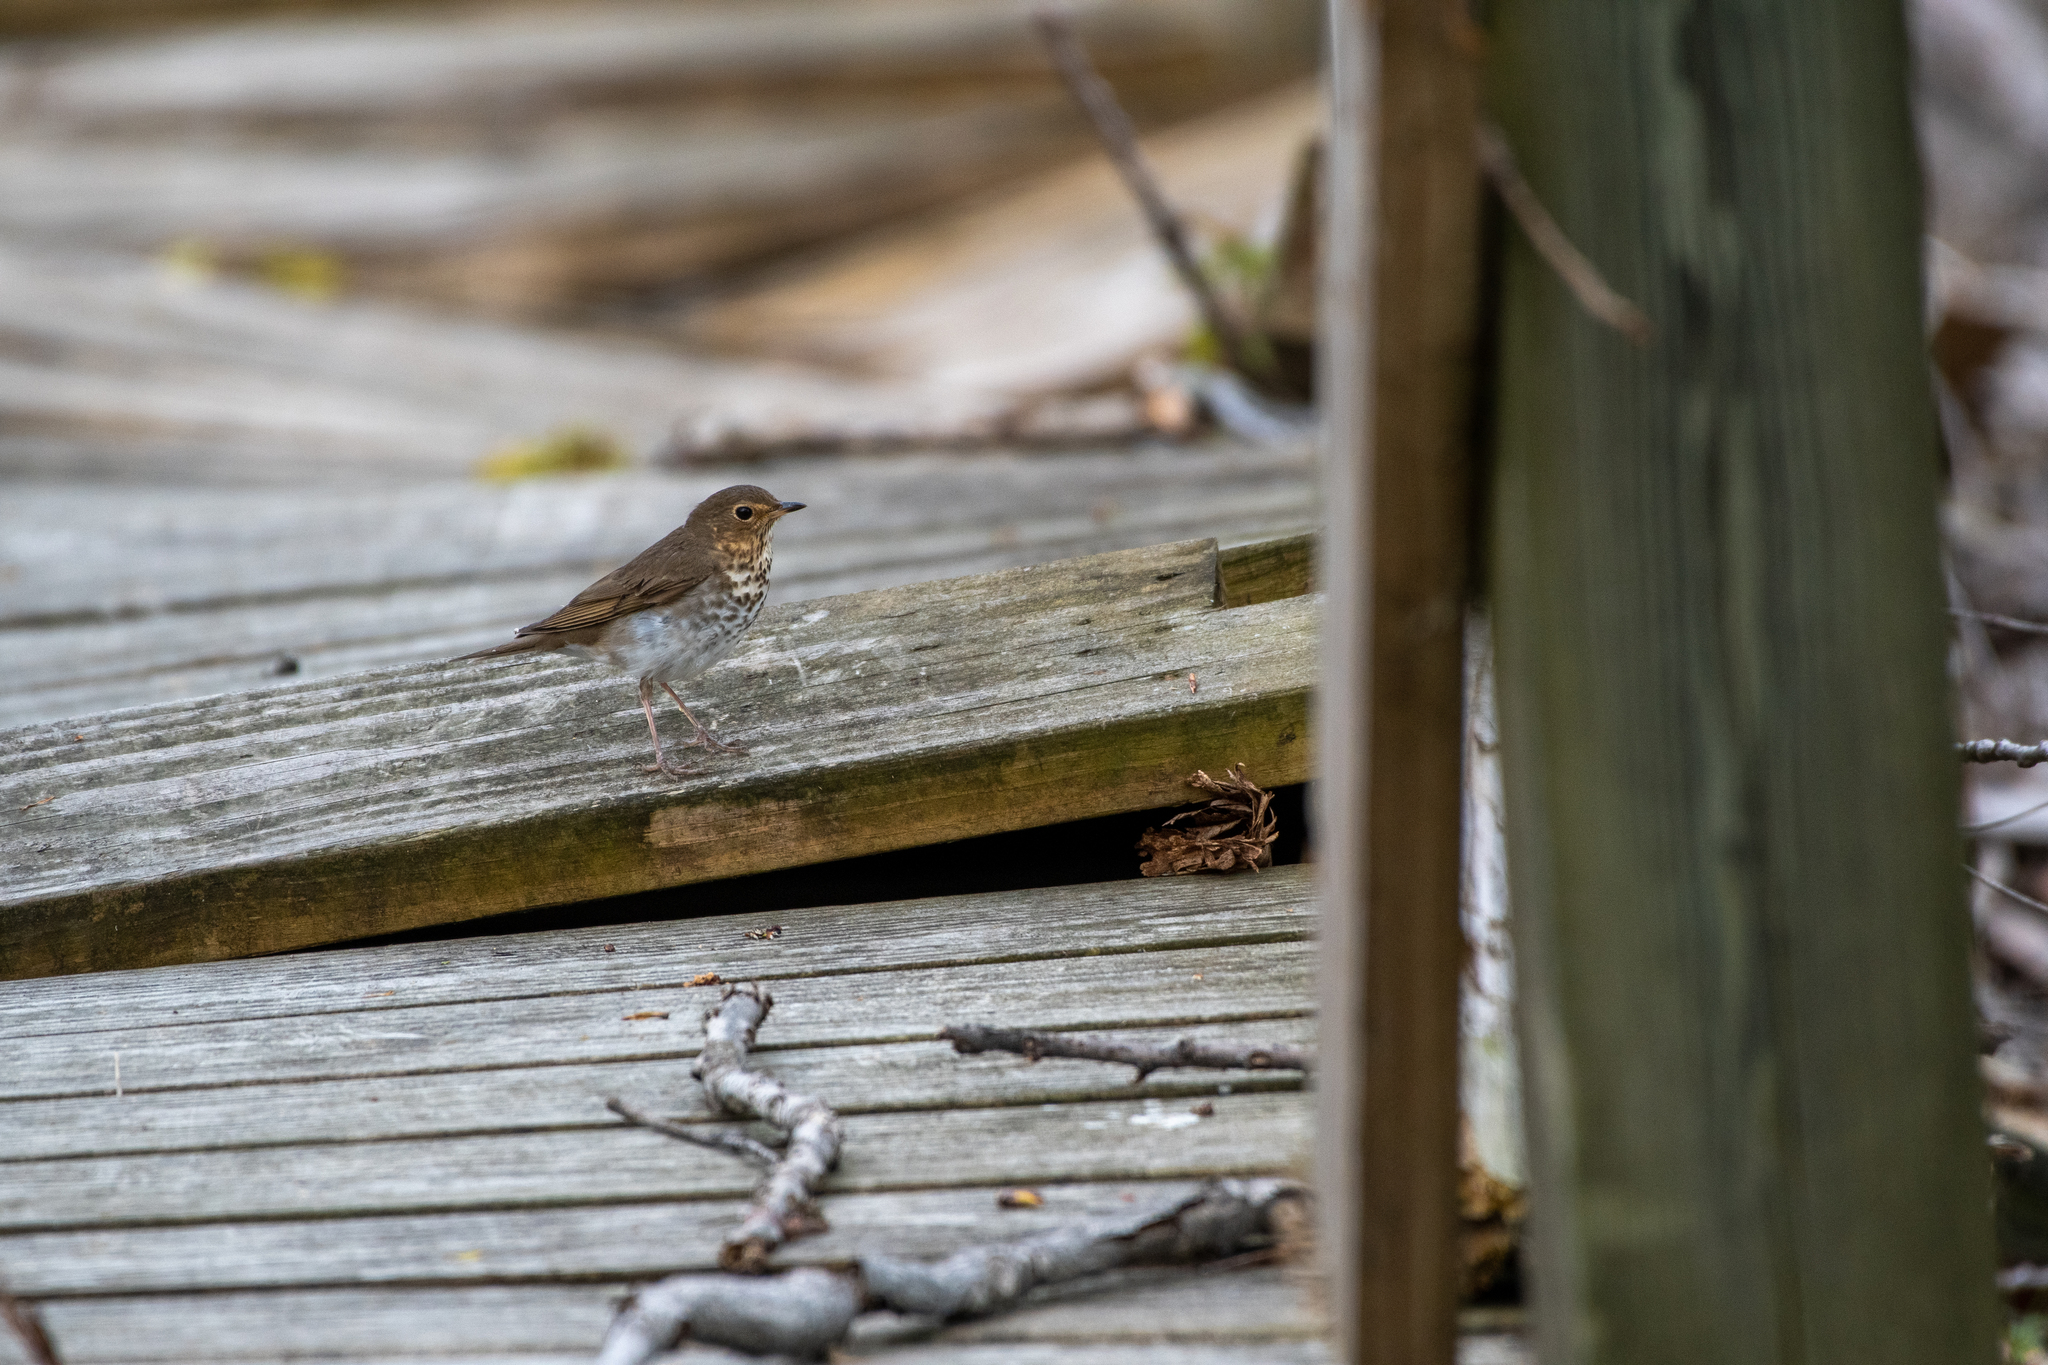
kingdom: Animalia
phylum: Chordata
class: Aves
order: Passeriformes
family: Turdidae
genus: Catharus
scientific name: Catharus ustulatus
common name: Swainson's thrush
